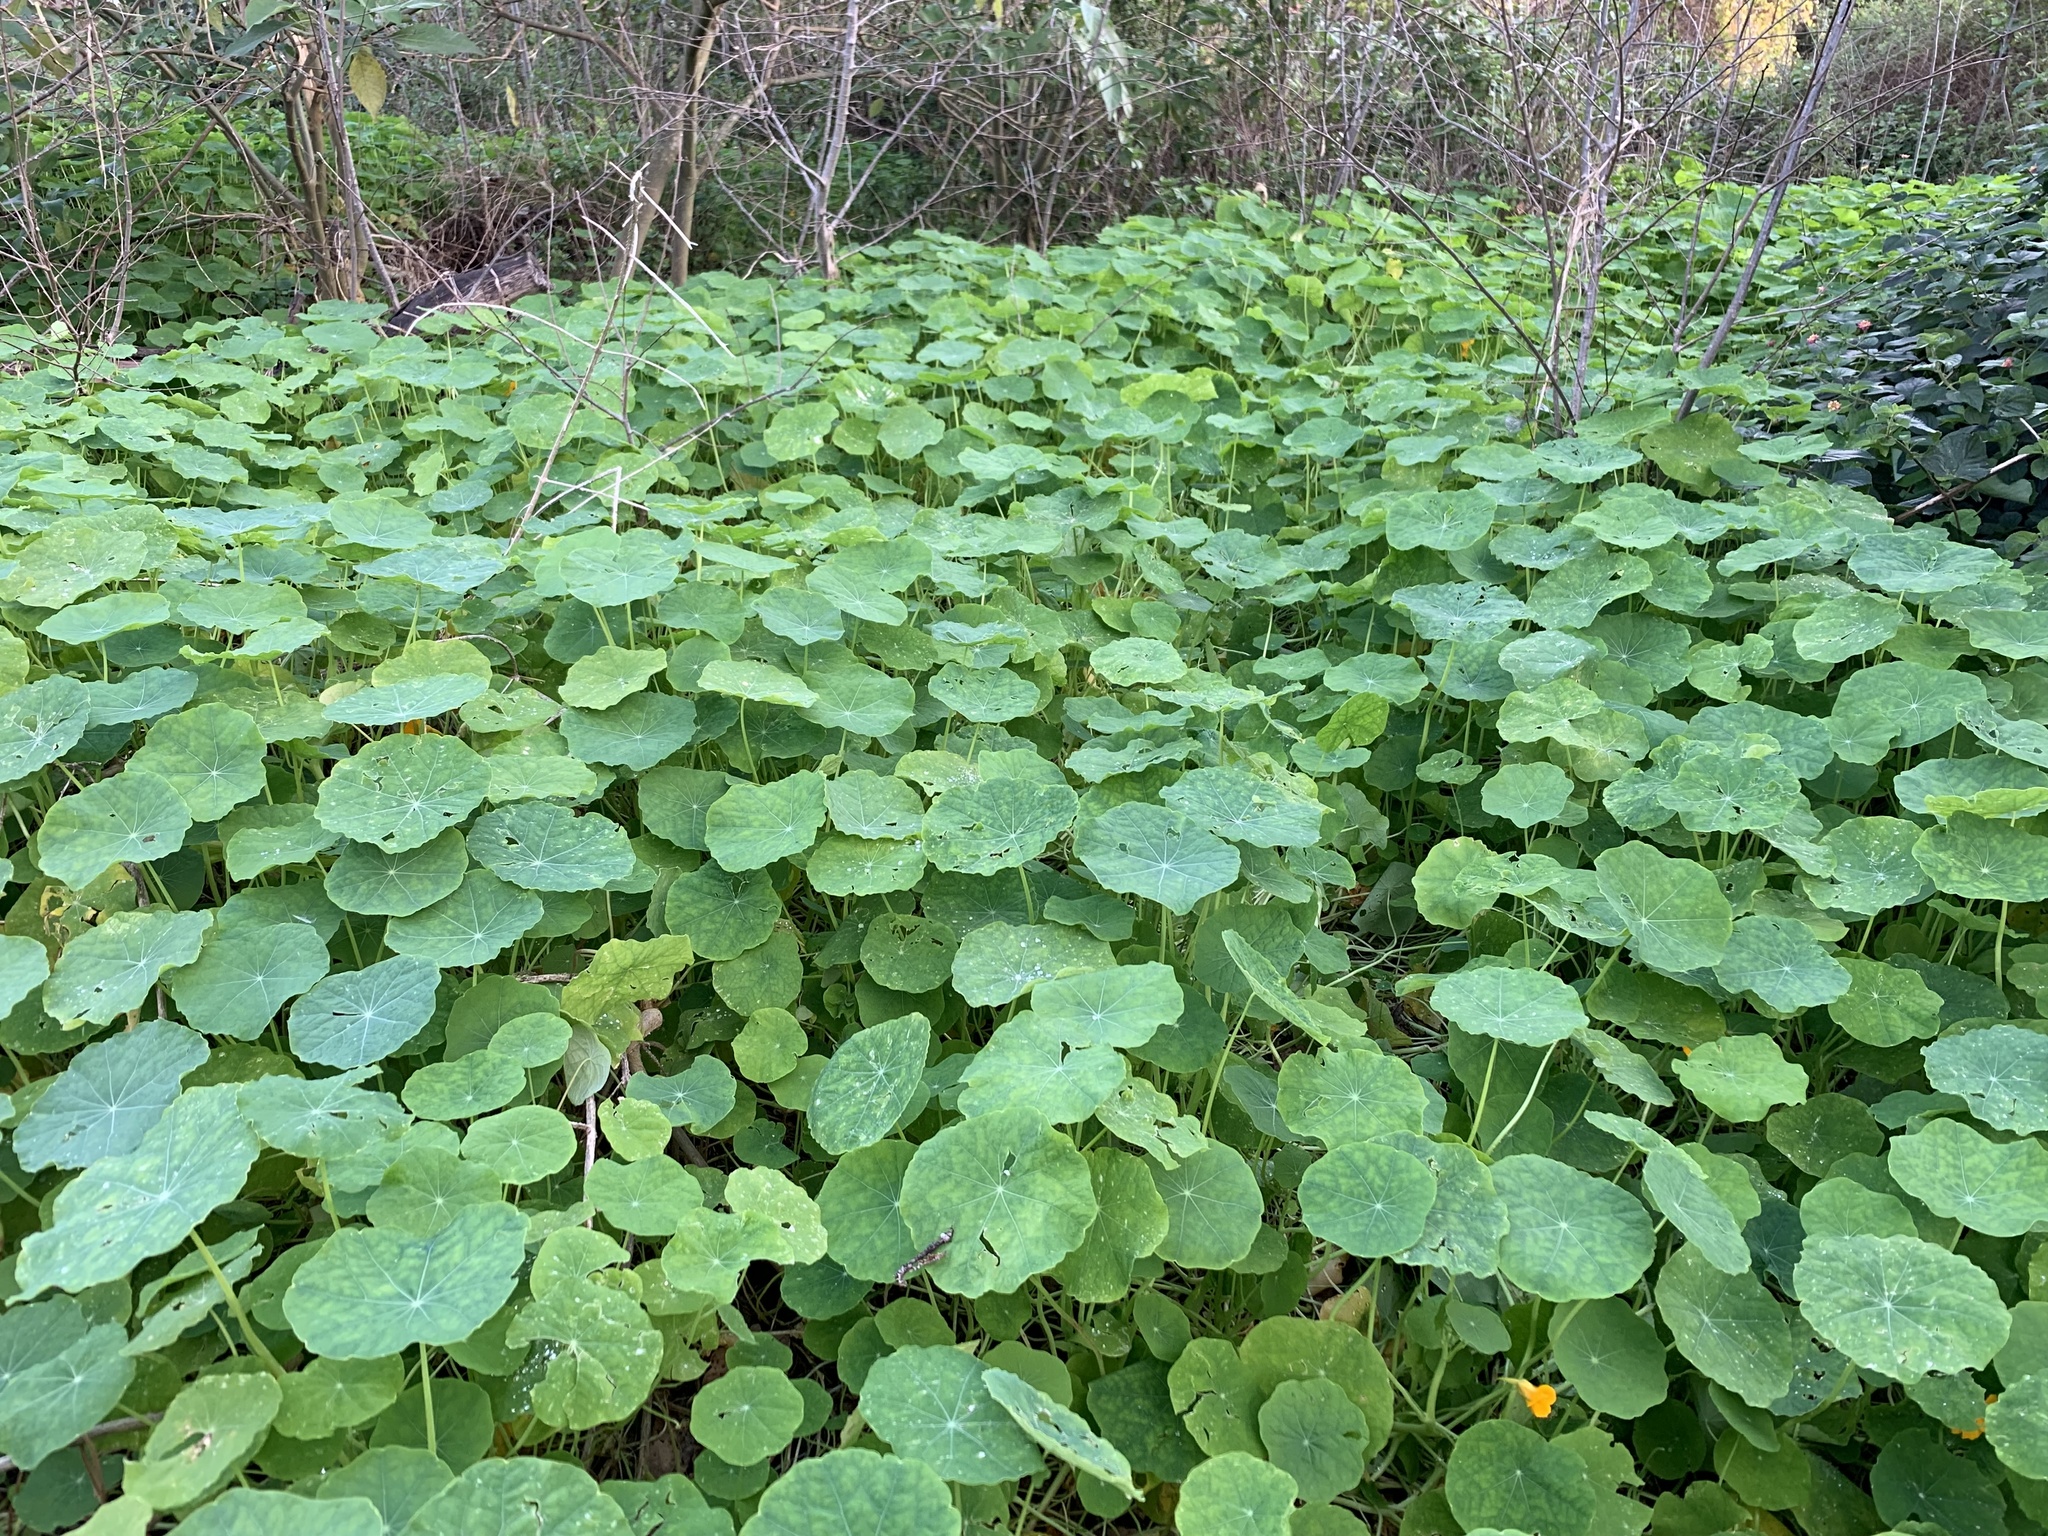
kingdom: Plantae
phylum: Tracheophyta
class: Magnoliopsida
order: Brassicales
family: Tropaeolaceae
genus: Tropaeolum
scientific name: Tropaeolum majus
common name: Nasturtium
